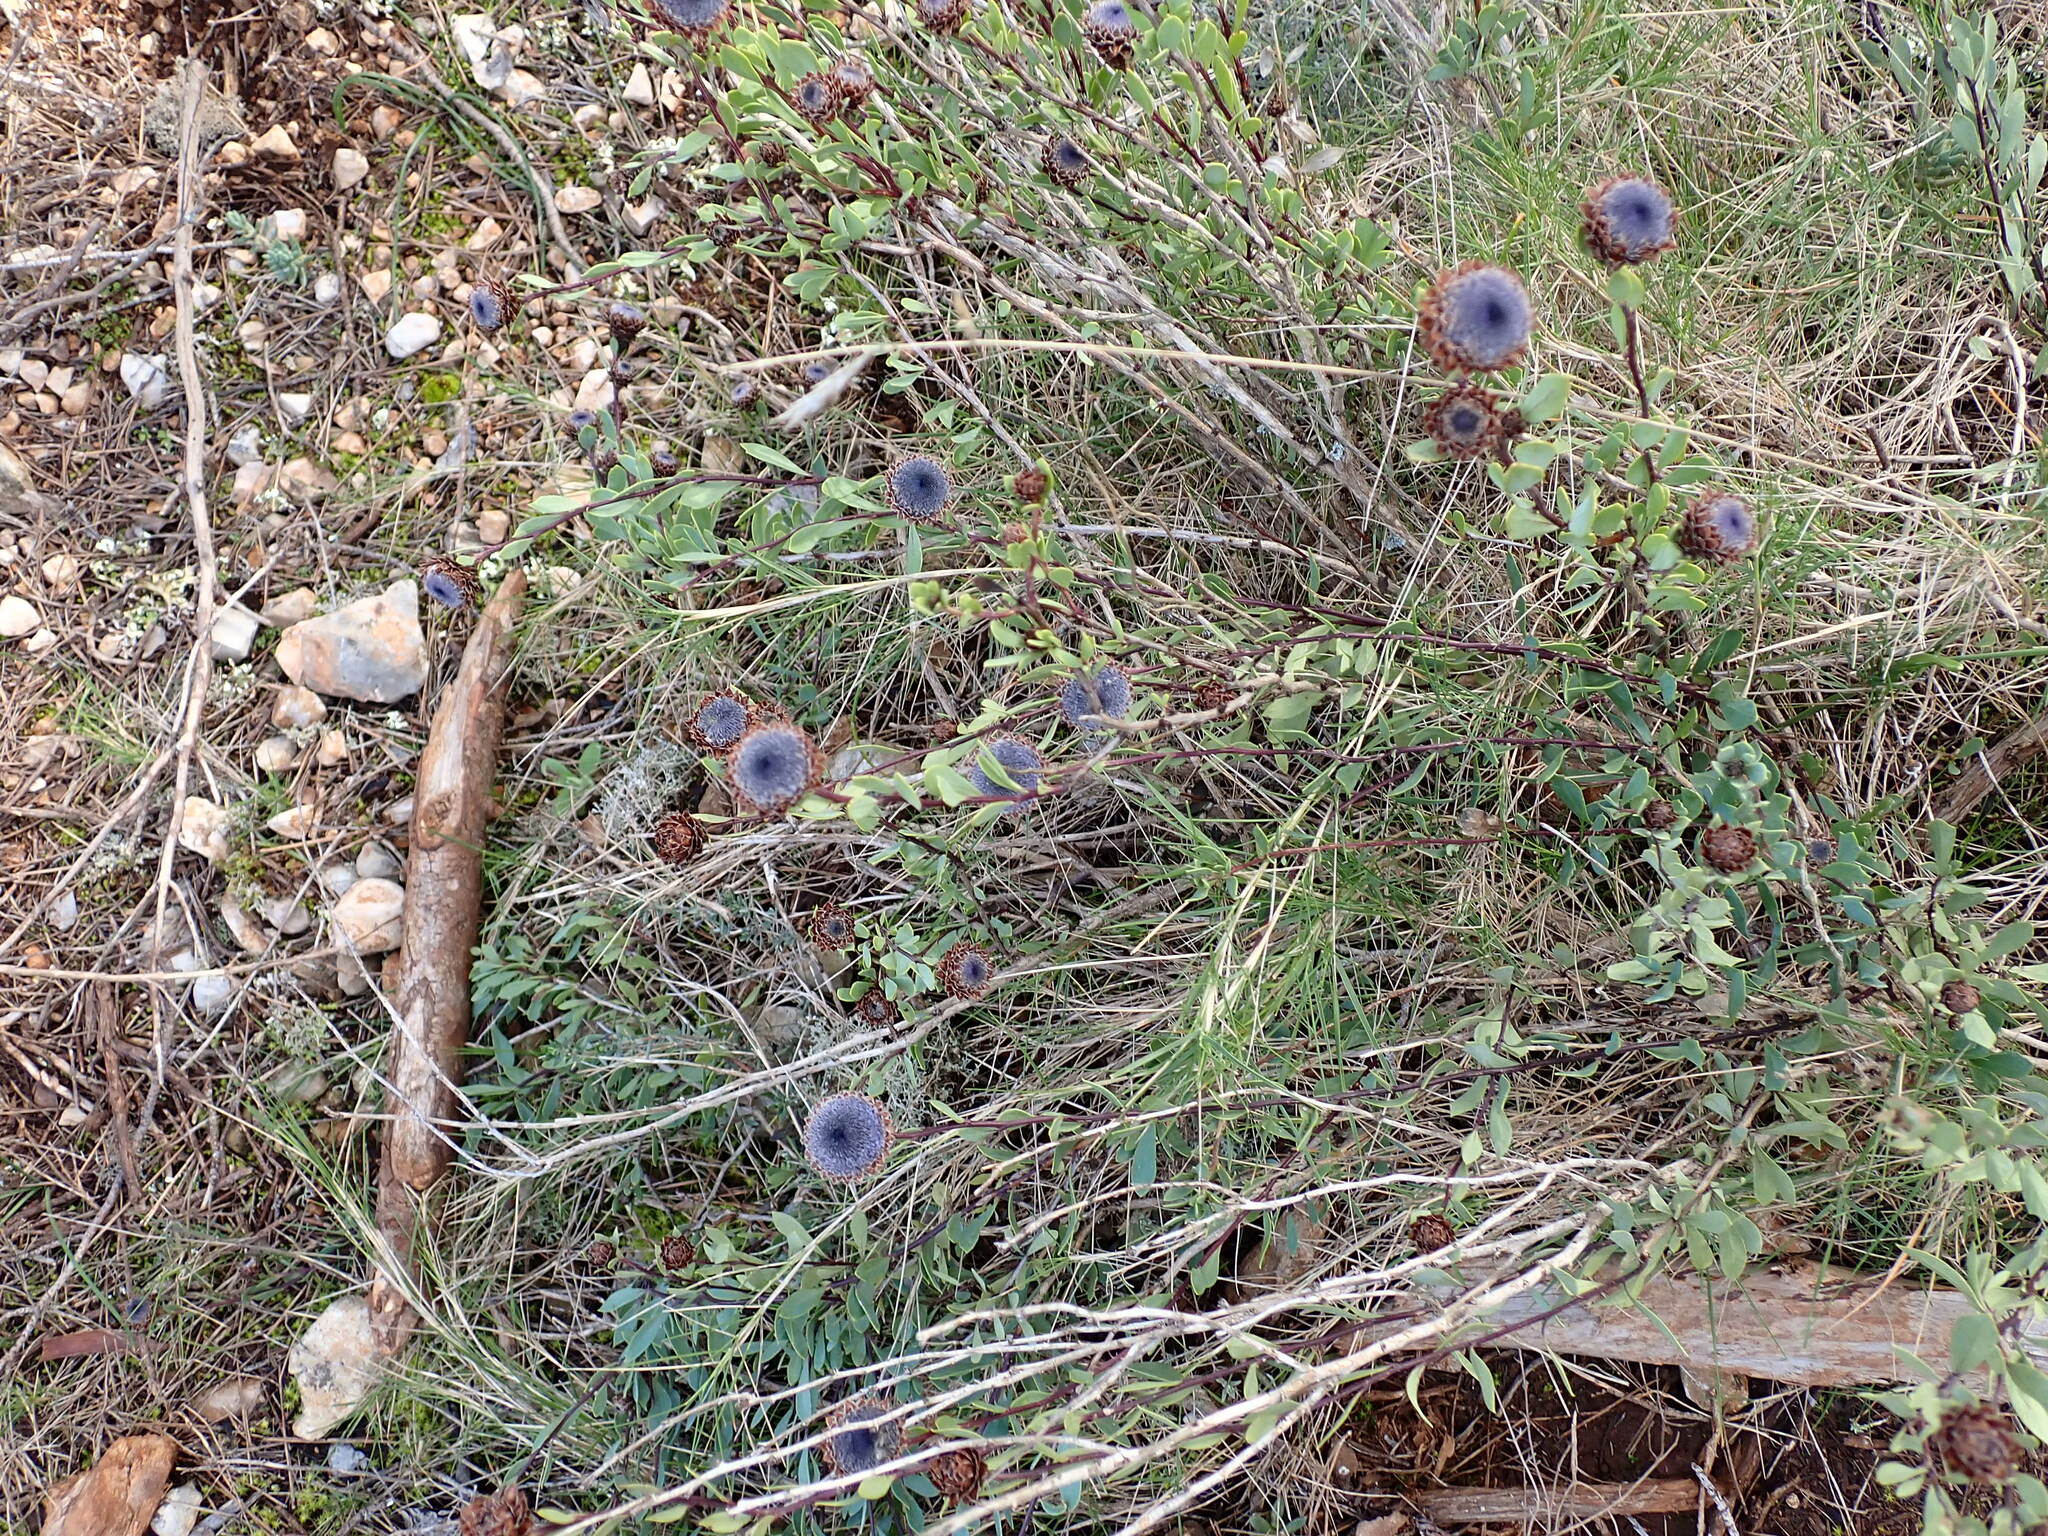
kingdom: Plantae
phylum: Tracheophyta
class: Magnoliopsida
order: Lamiales
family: Plantaginaceae
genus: Globularia
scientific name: Globularia alypum
